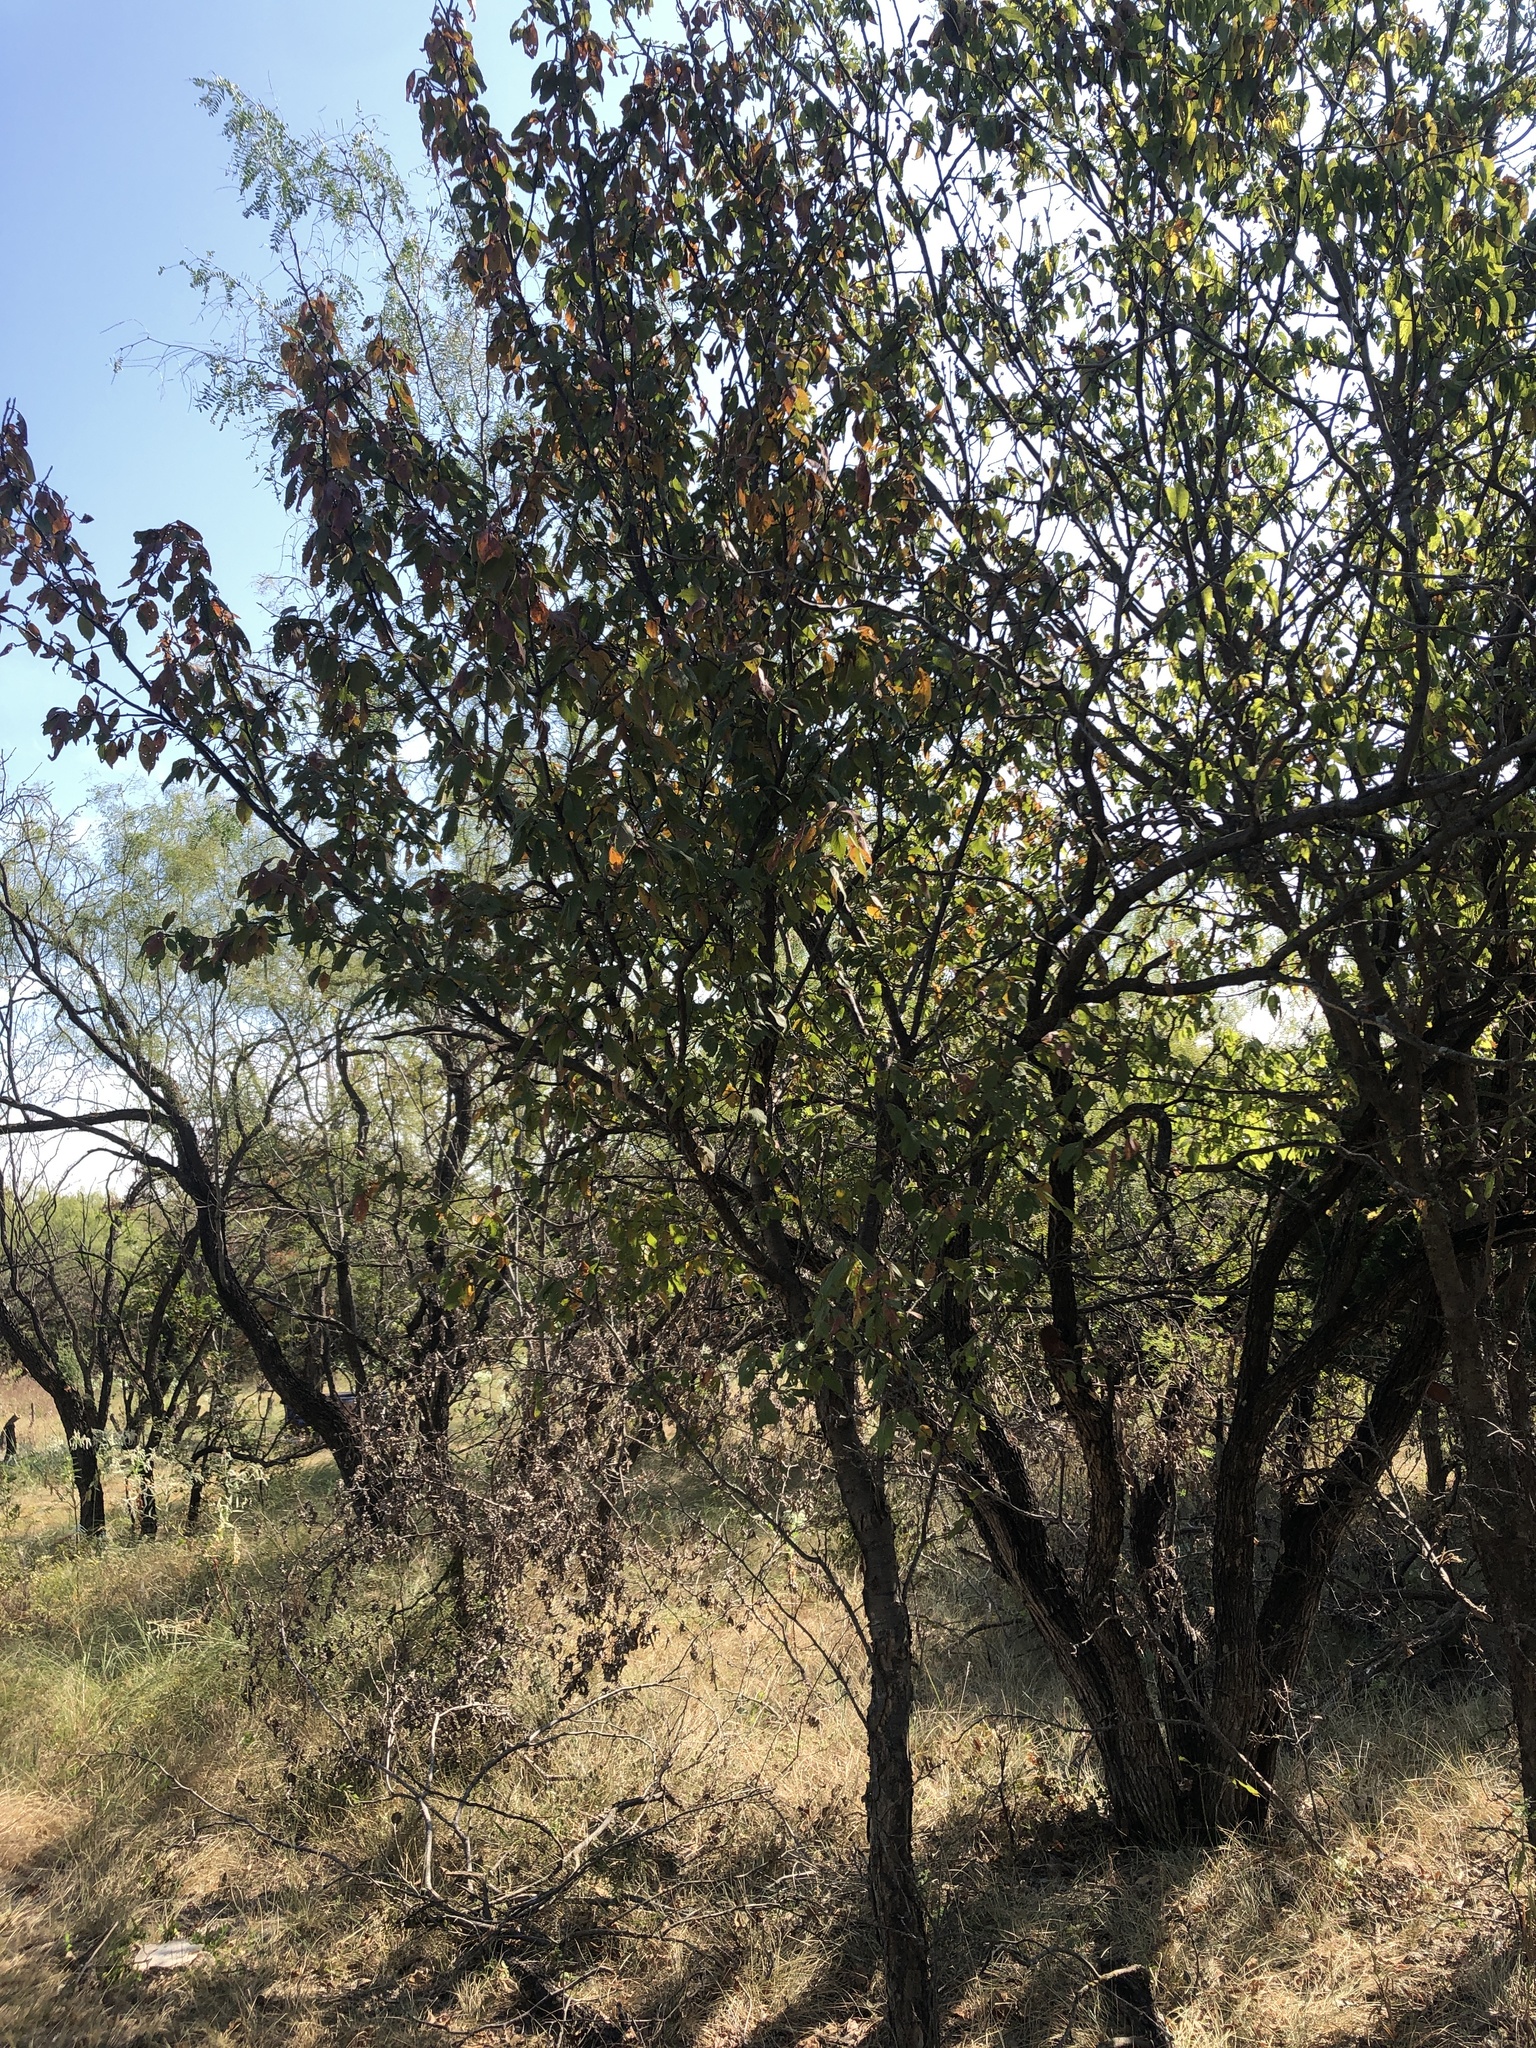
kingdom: Plantae
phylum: Tracheophyta
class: Magnoliopsida
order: Rosales
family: Rosaceae
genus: Prunus
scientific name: Prunus mexicana
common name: Mexican plum
